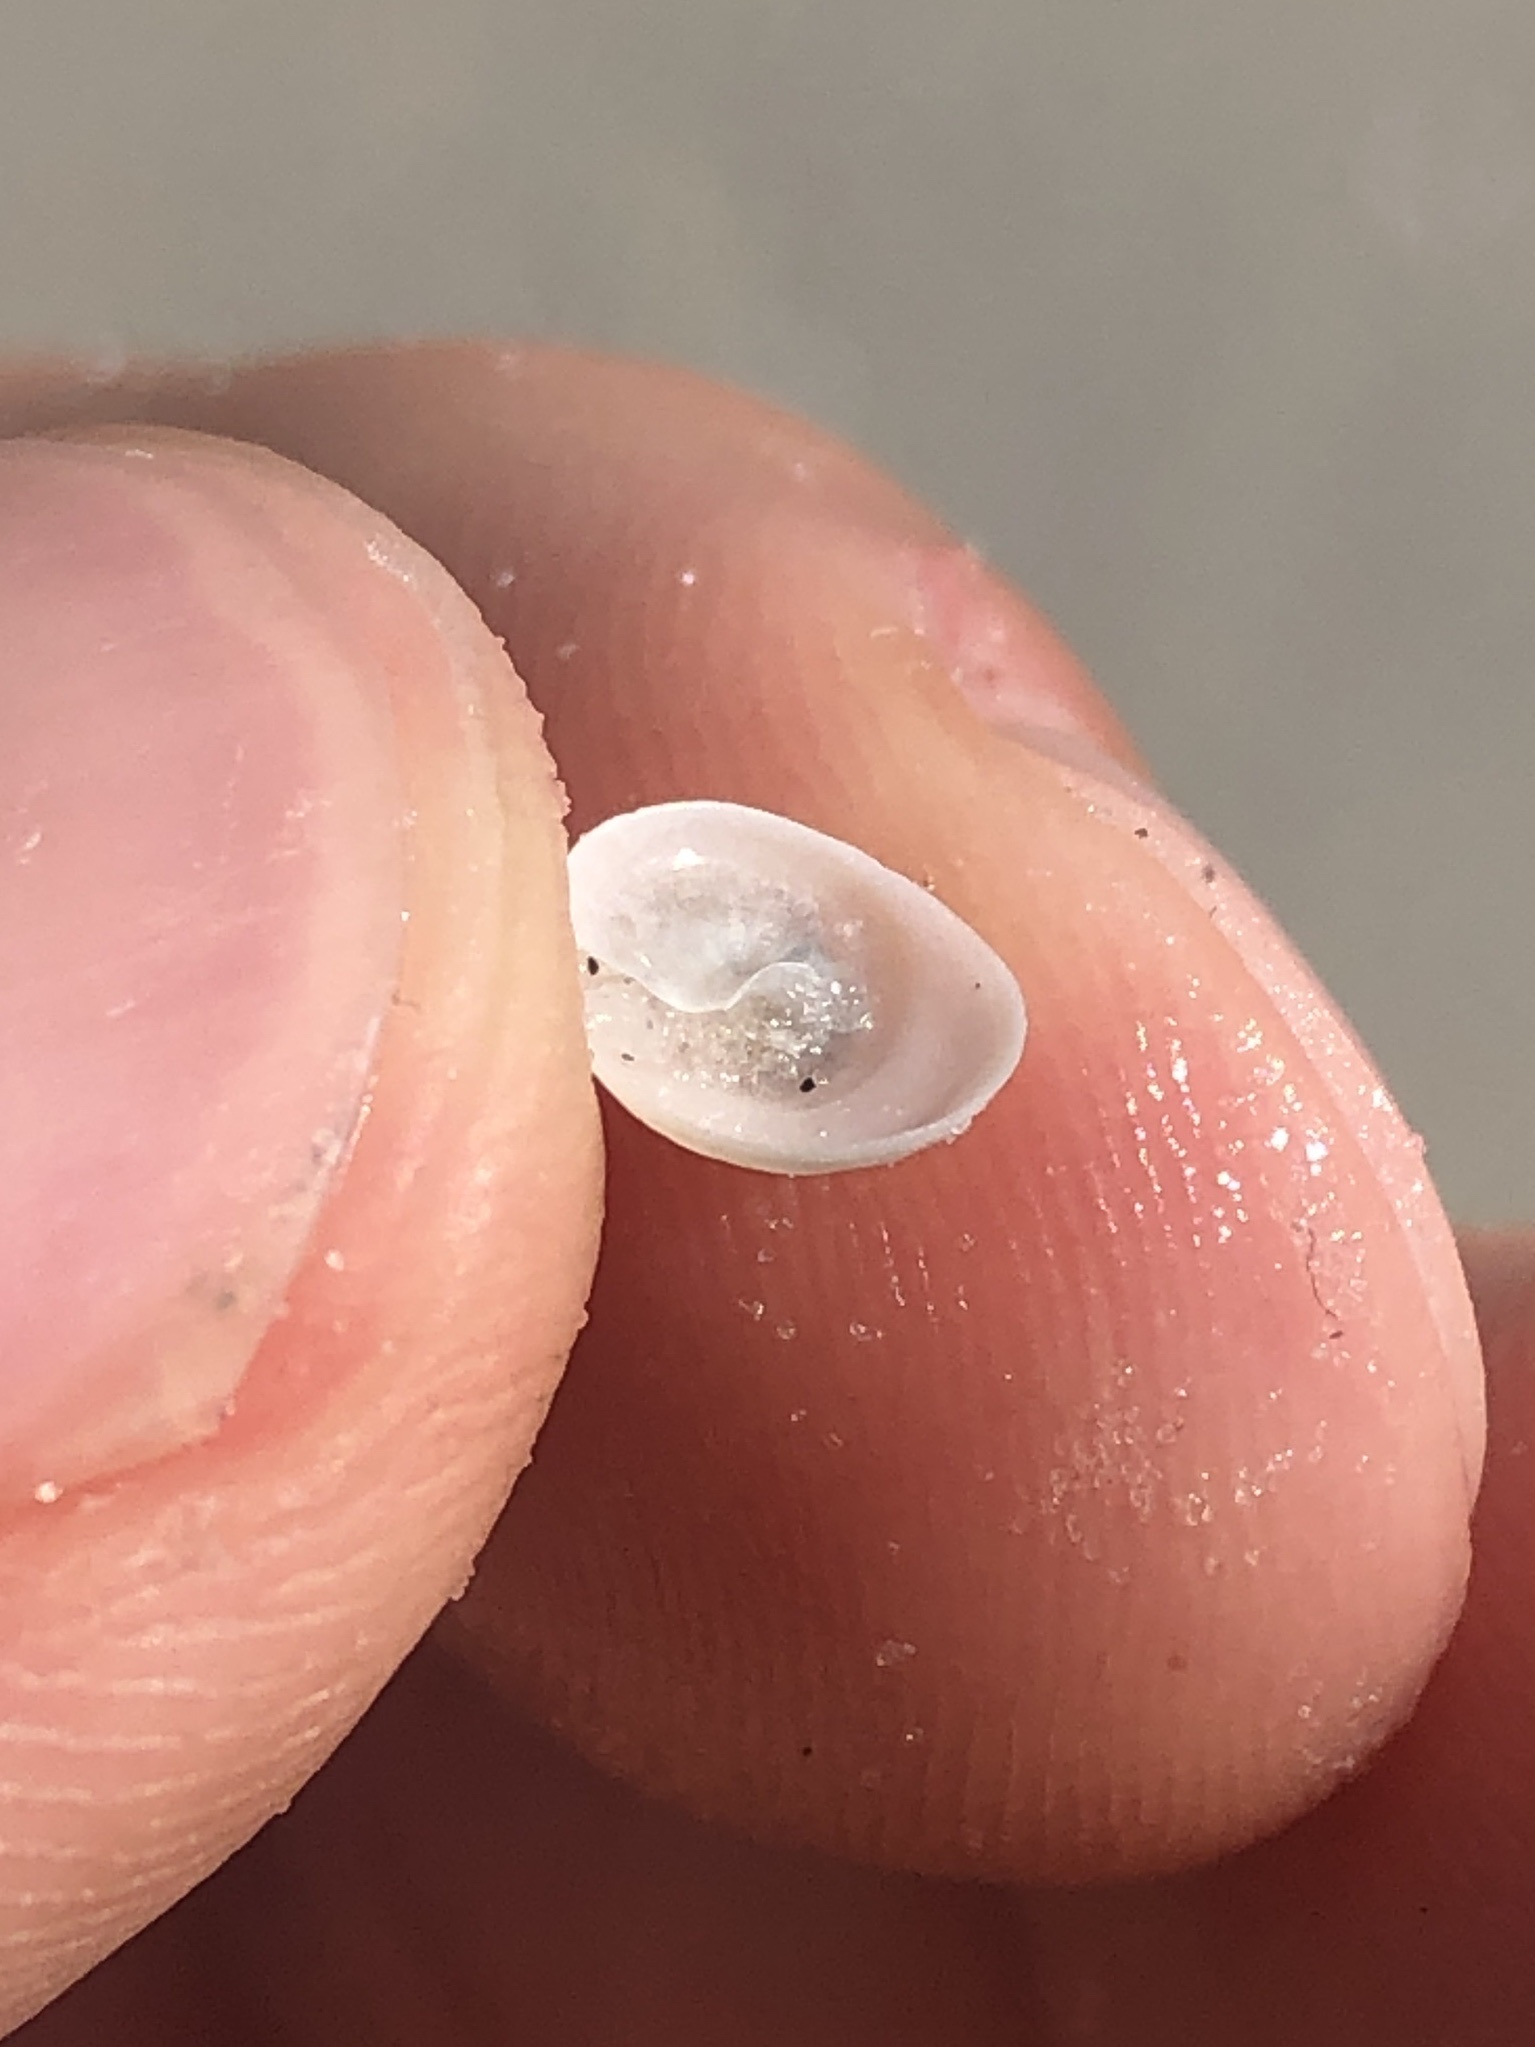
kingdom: Animalia
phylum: Mollusca
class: Gastropoda
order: Littorinimorpha
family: Calyptraeidae
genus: Calyptraea
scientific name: Calyptraea centralis
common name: Circular chinese hat
